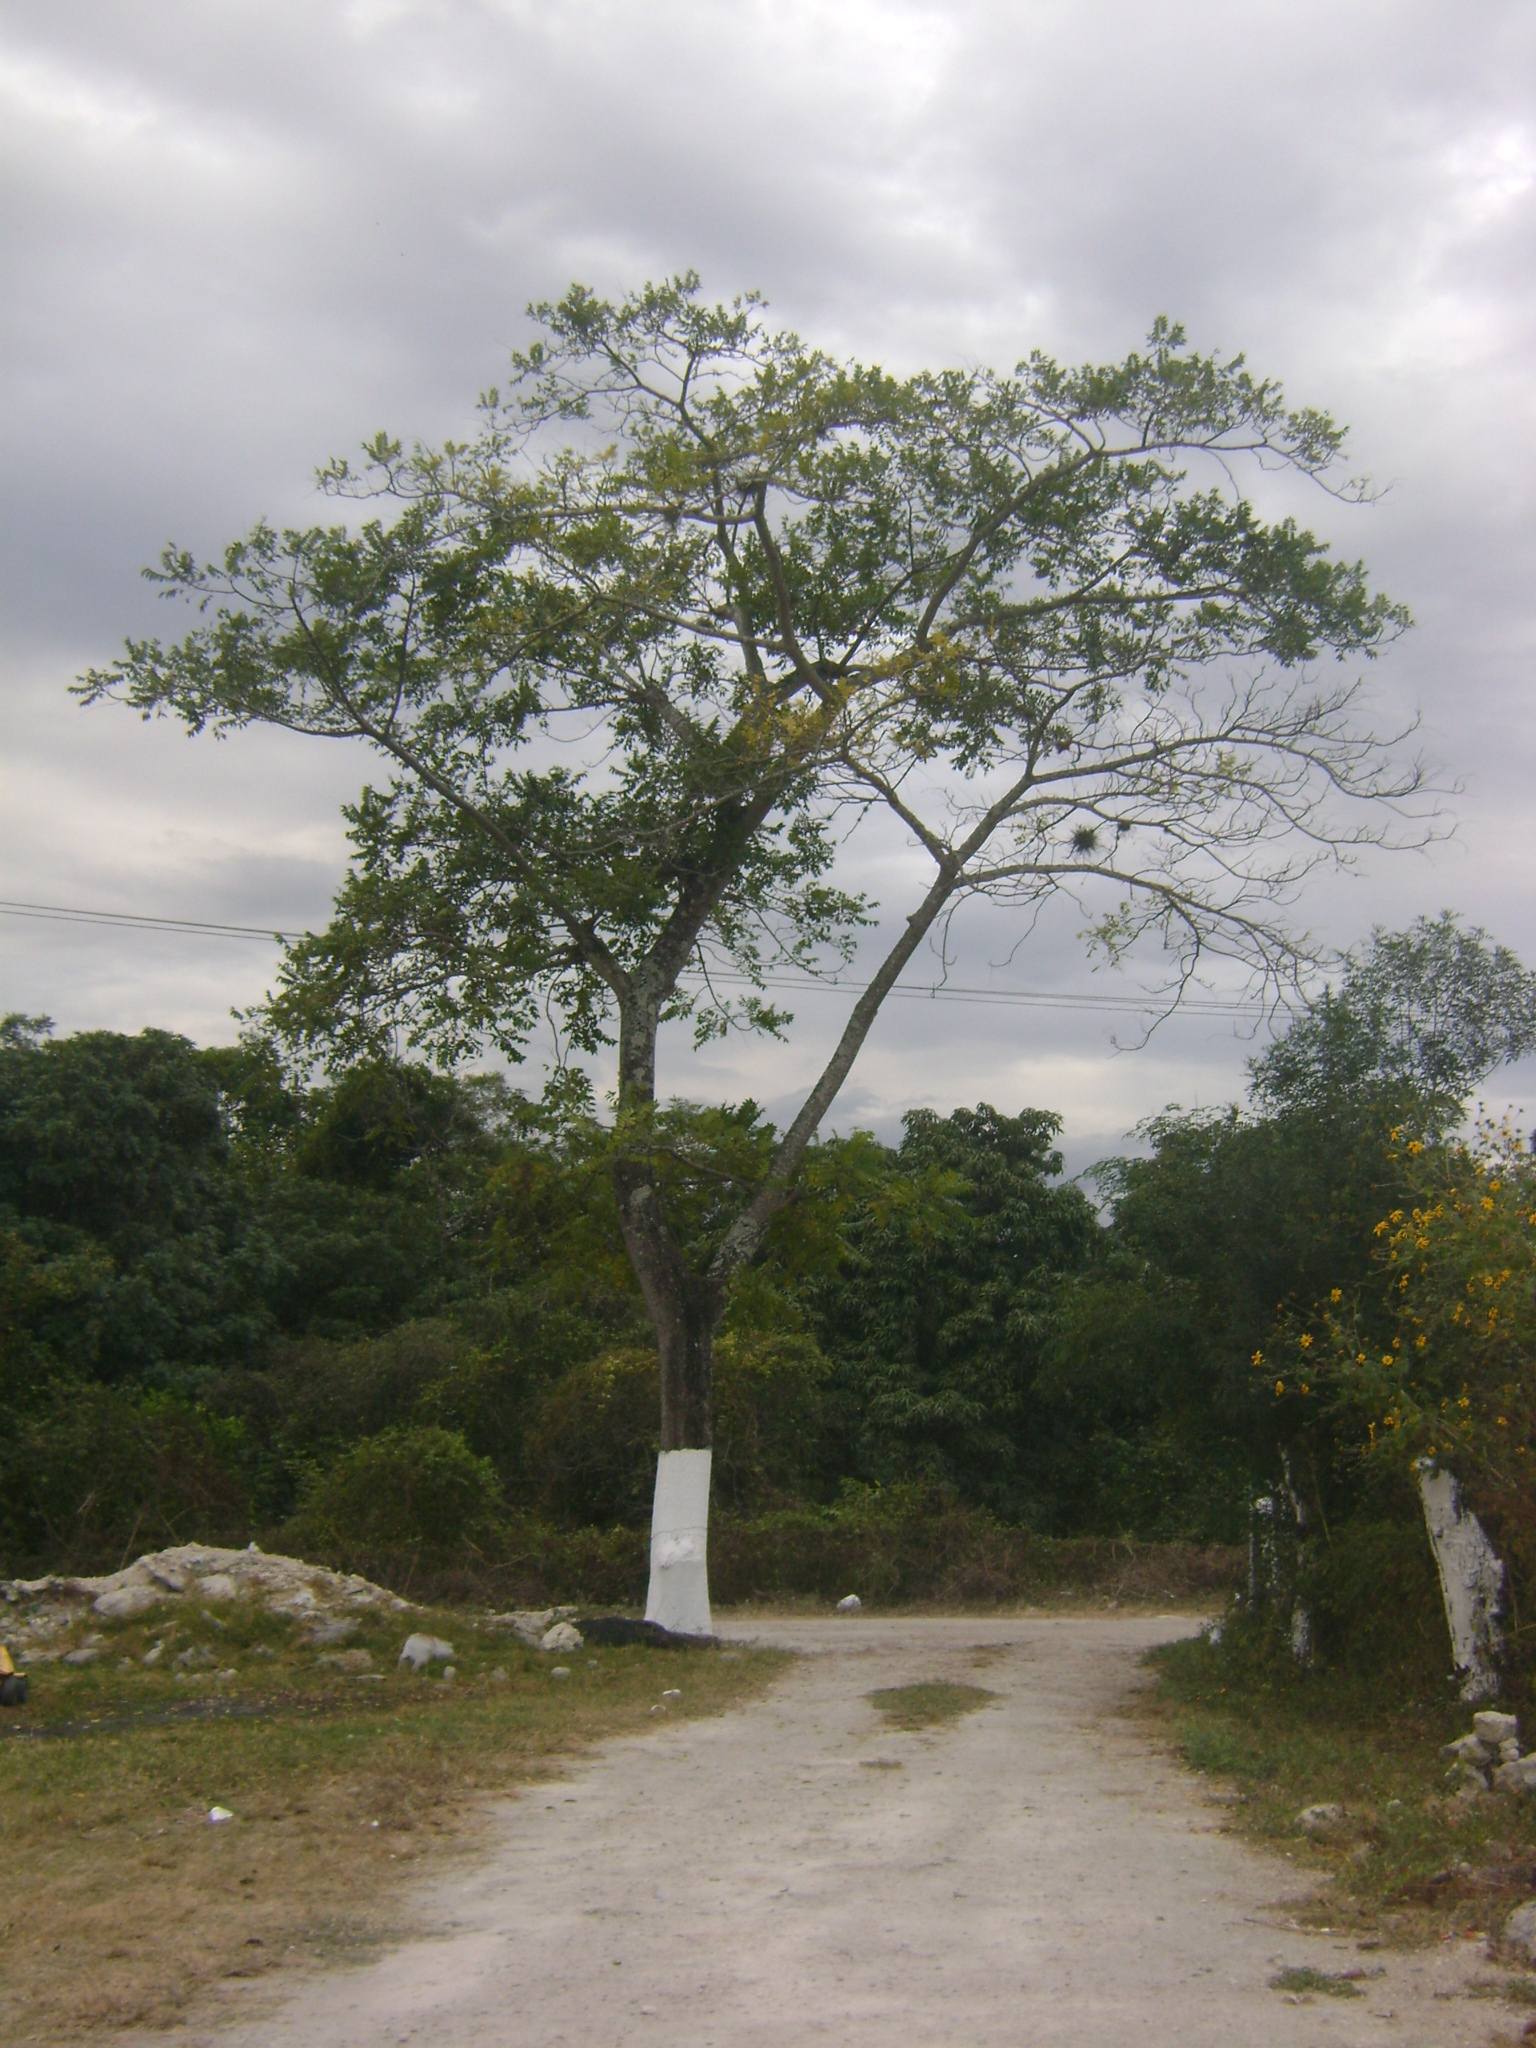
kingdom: Plantae
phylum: Tracheophyta
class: Magnoliopsida
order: Sapindales
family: Anacardiaceae
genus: Spondias
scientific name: Spondias radlkoferi
